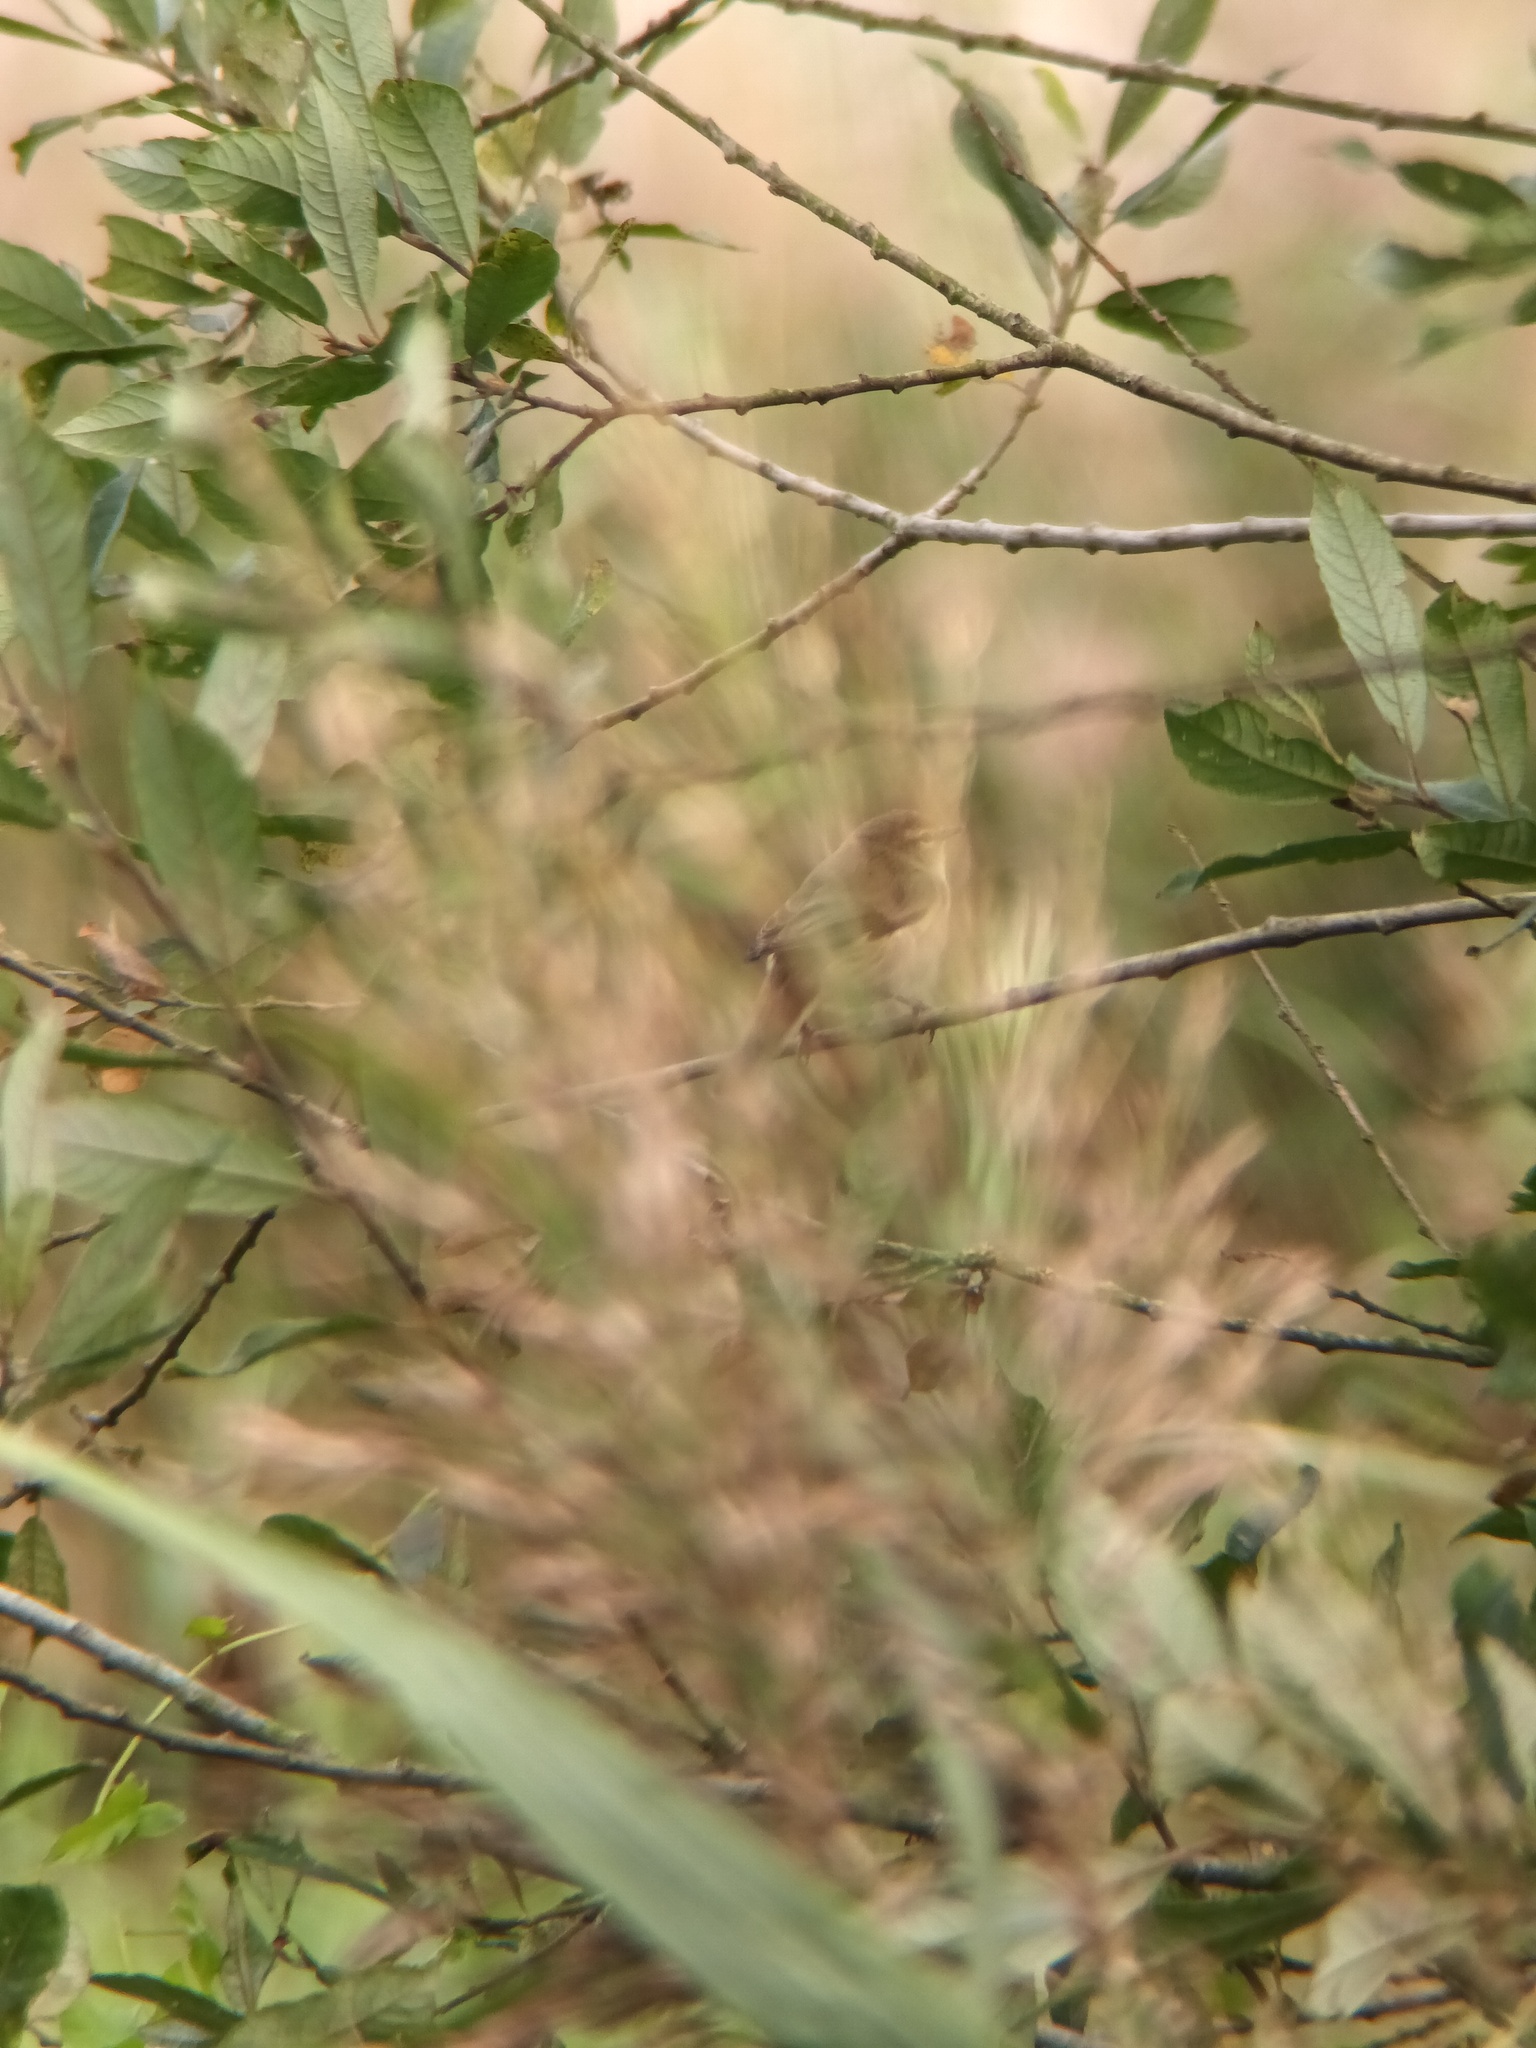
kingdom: Animalia
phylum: Chordata
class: Aves
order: Passeriformes
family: Phylloscopidae
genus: Phylloscopus
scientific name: Phylloscopus collybita
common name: Common chiffchaff
